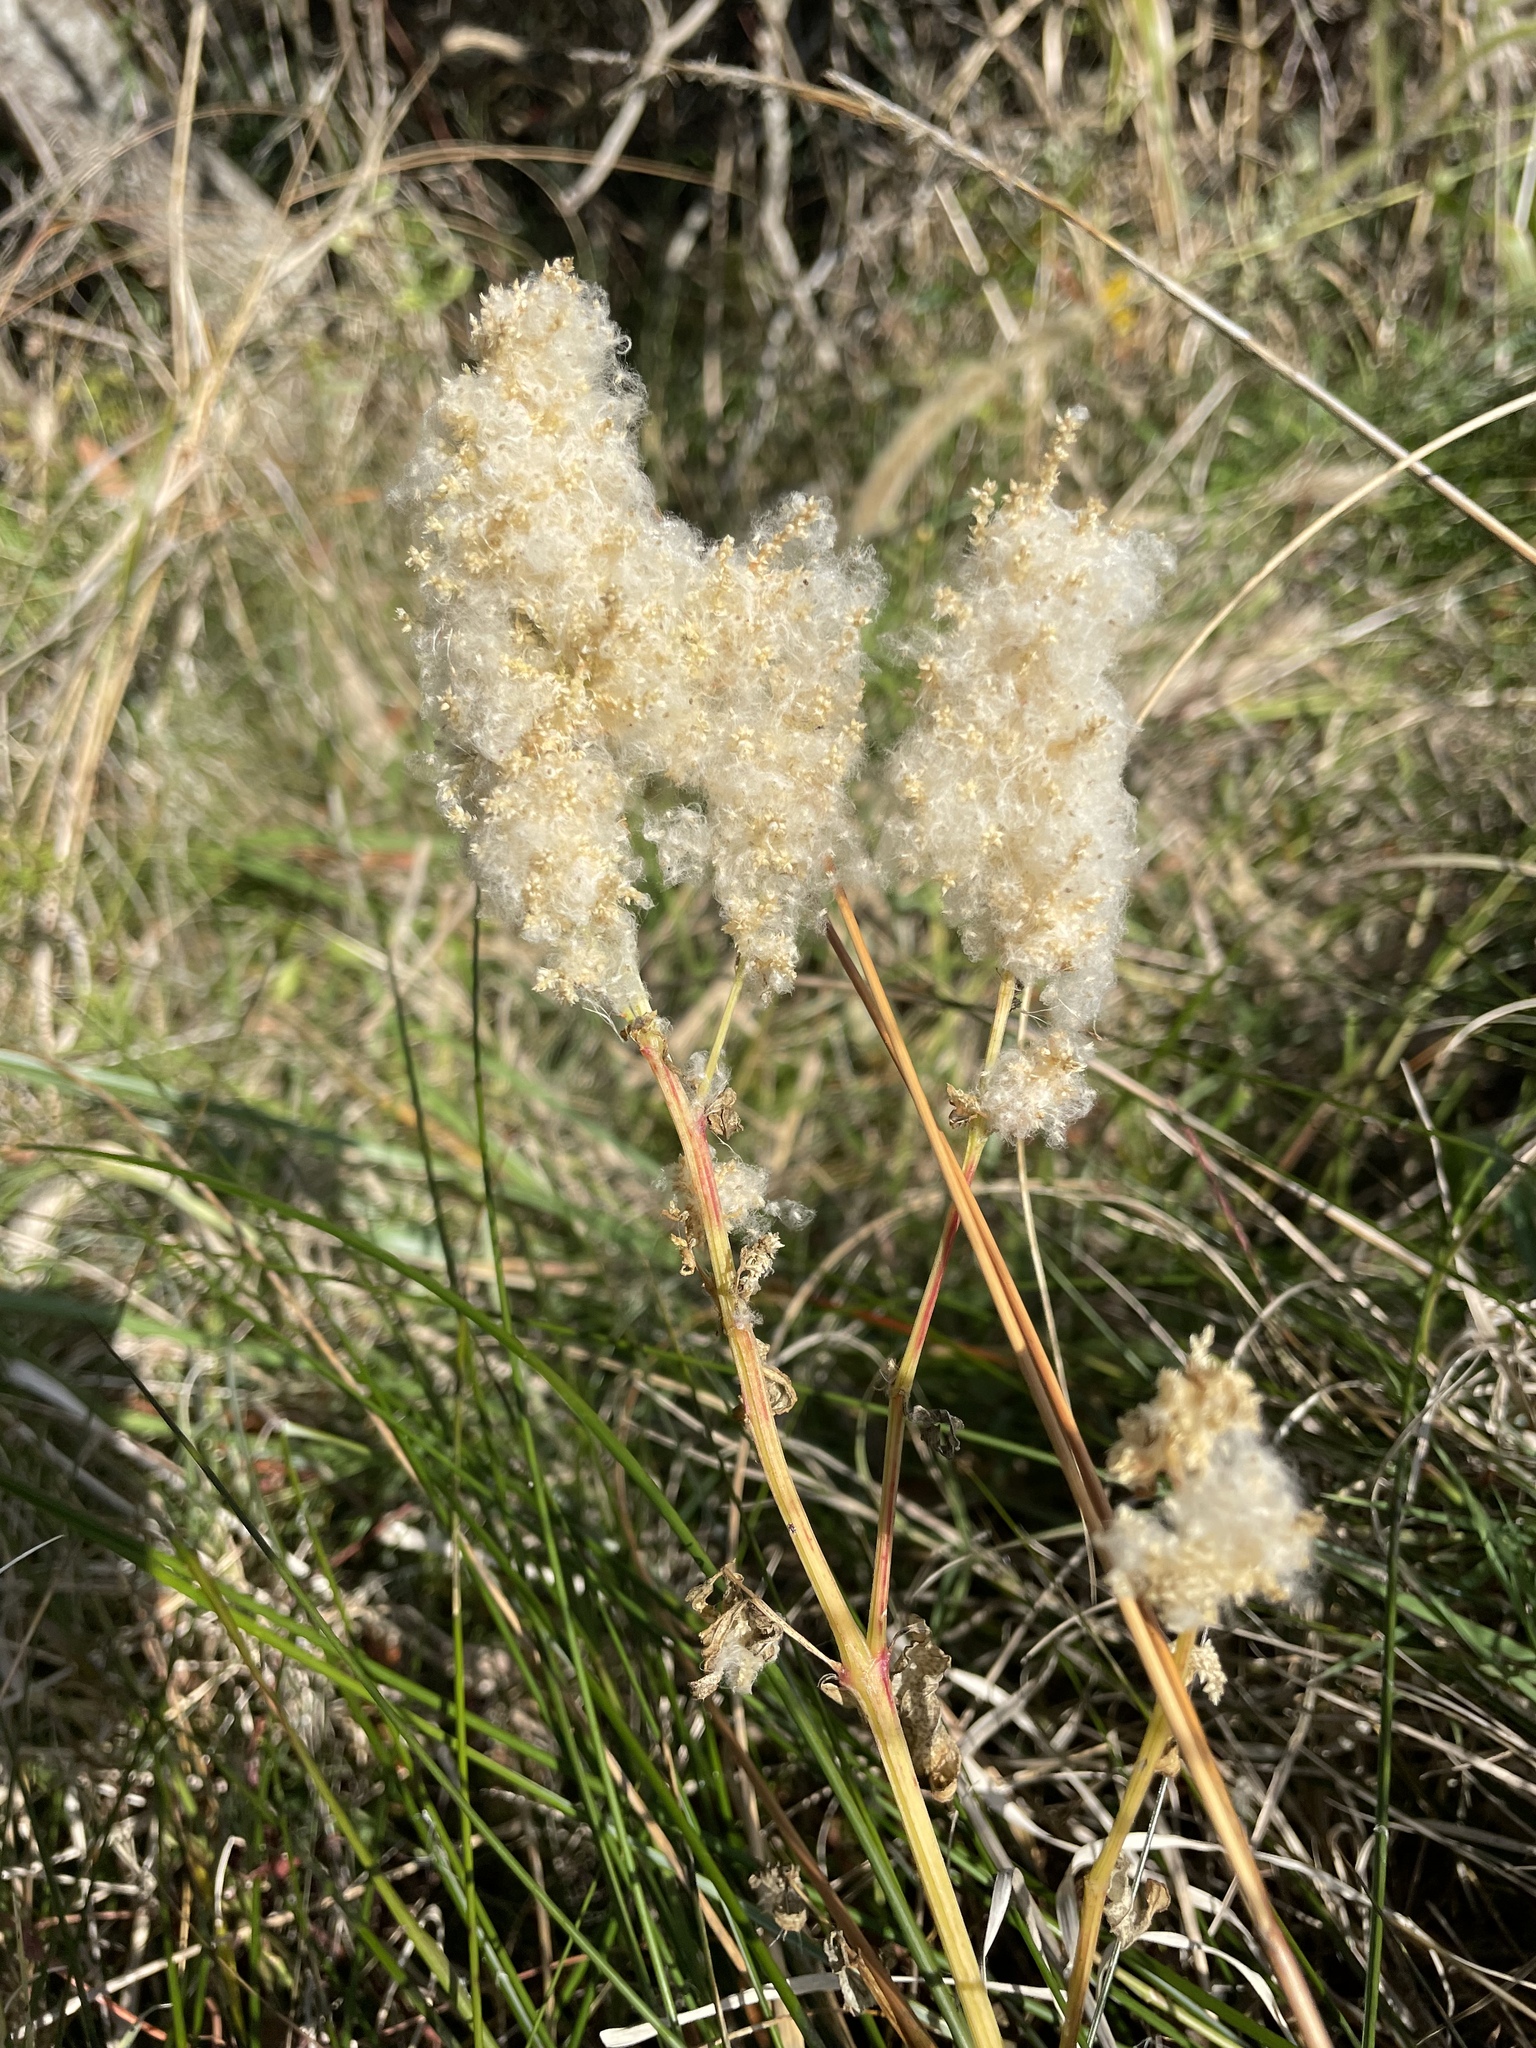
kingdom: Plantae
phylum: Tracheophyta
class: Magnoliopsida
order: Caryophyllales
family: Amaranthaceae
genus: Iresine
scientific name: Iresine rhizomatosa
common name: Juda's-bush
